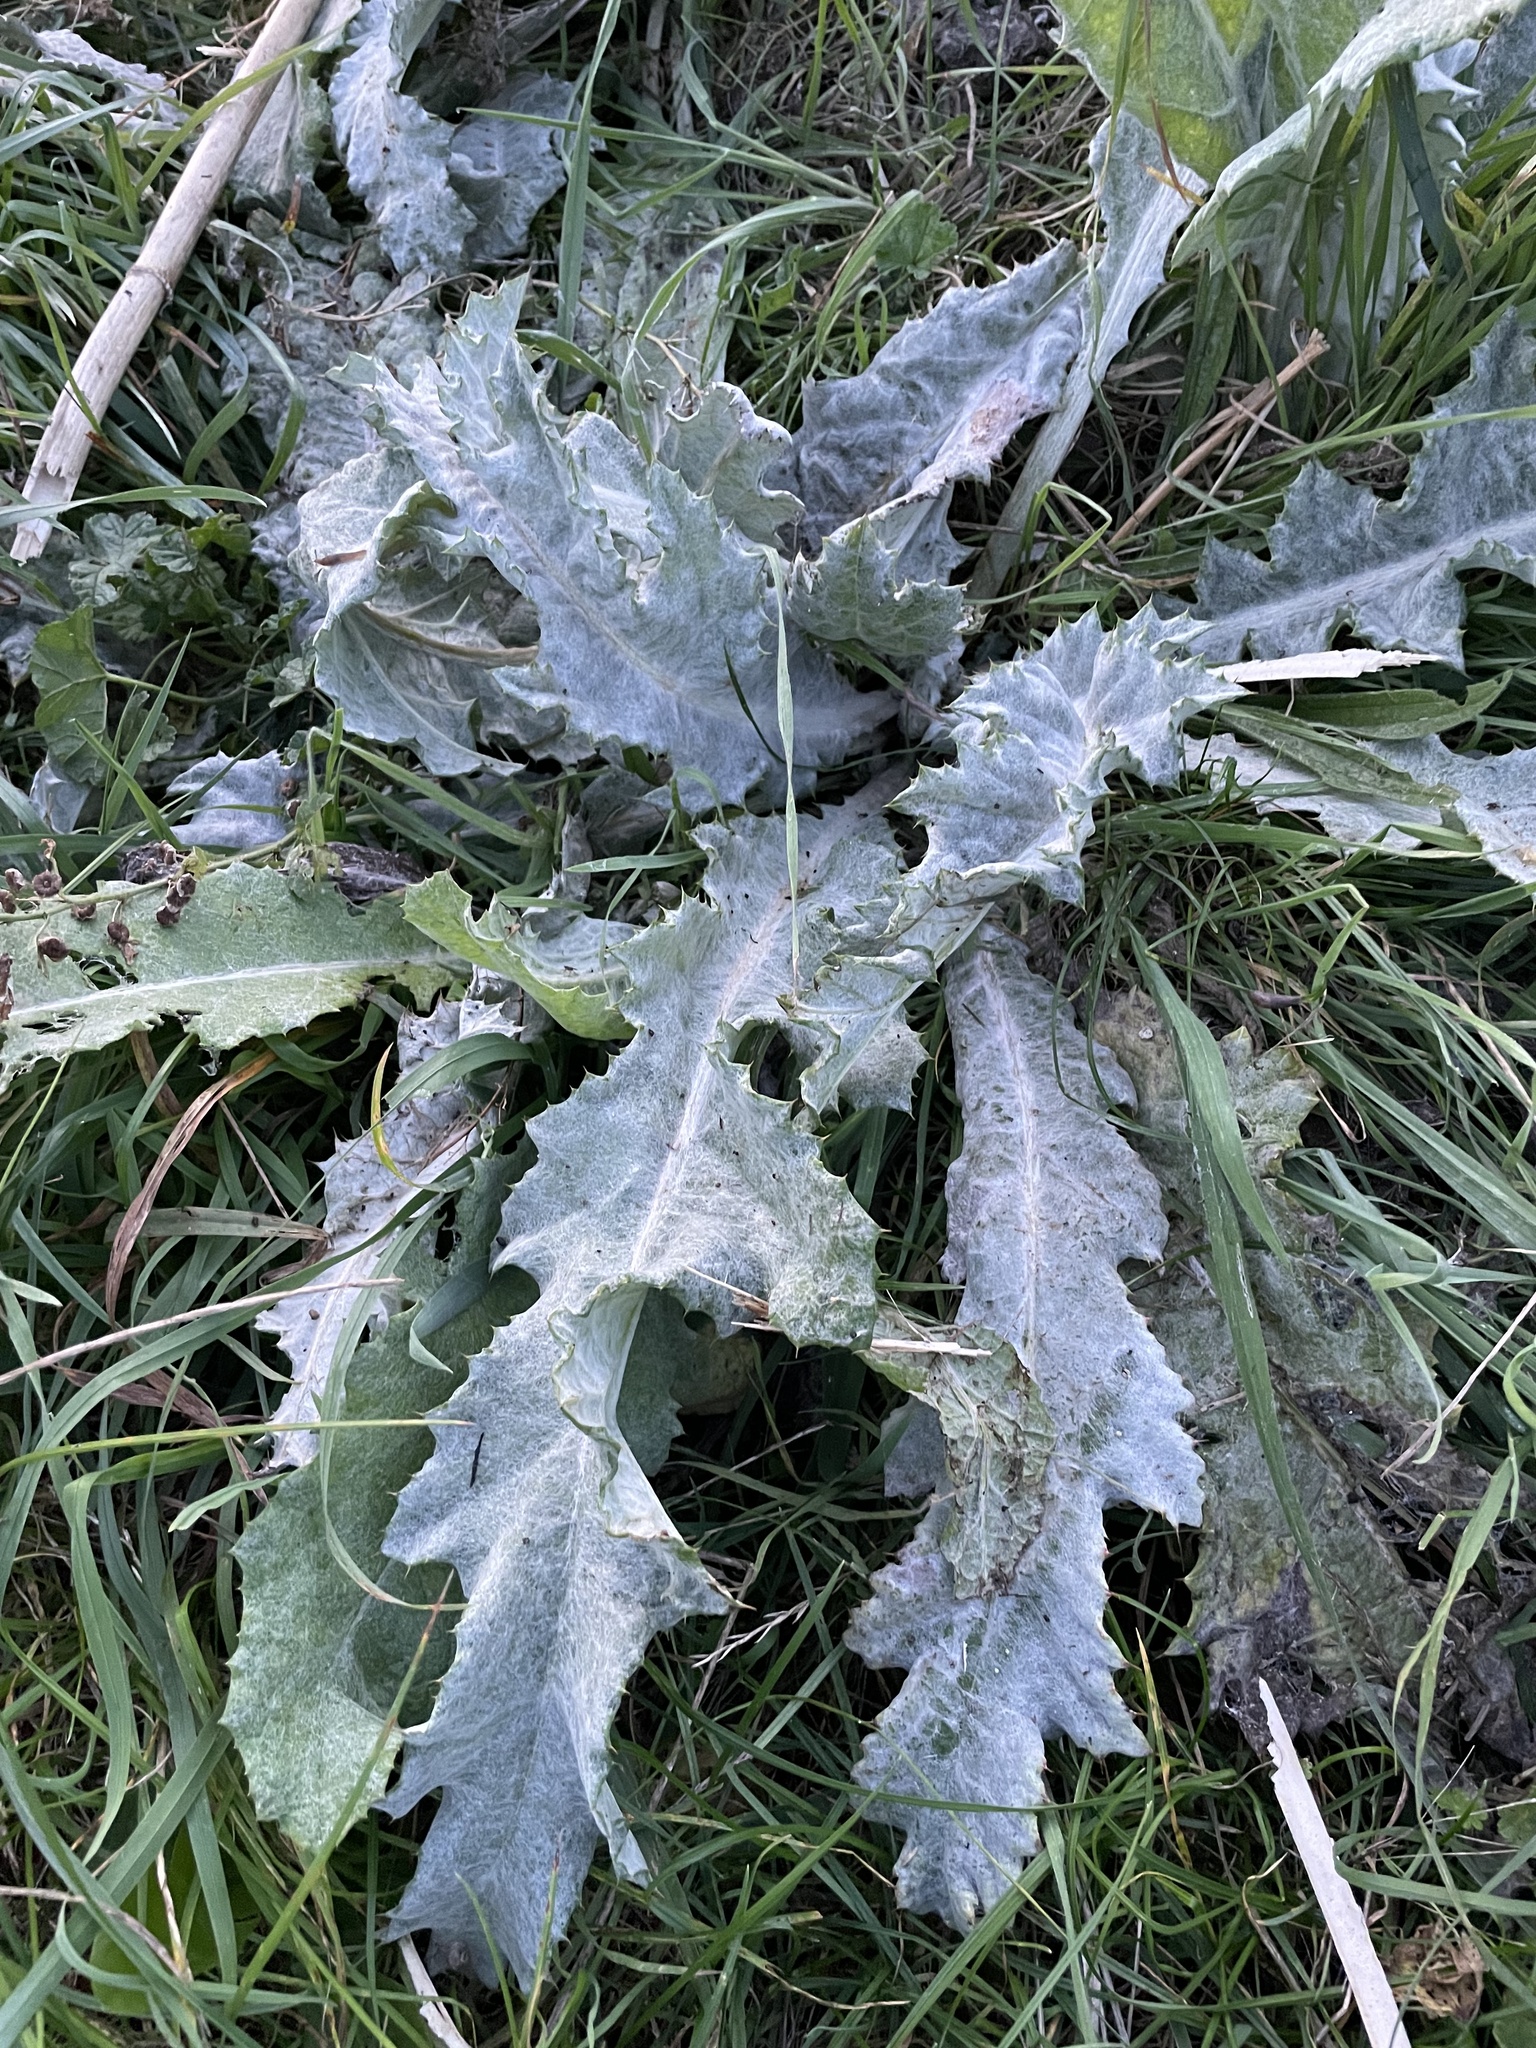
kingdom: Plantae
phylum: Tracheophyta
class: Magnoliopsida
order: Asterales
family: Asteraceae
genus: Onopordum
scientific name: Onopordum acanthium
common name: Scotch thistle
